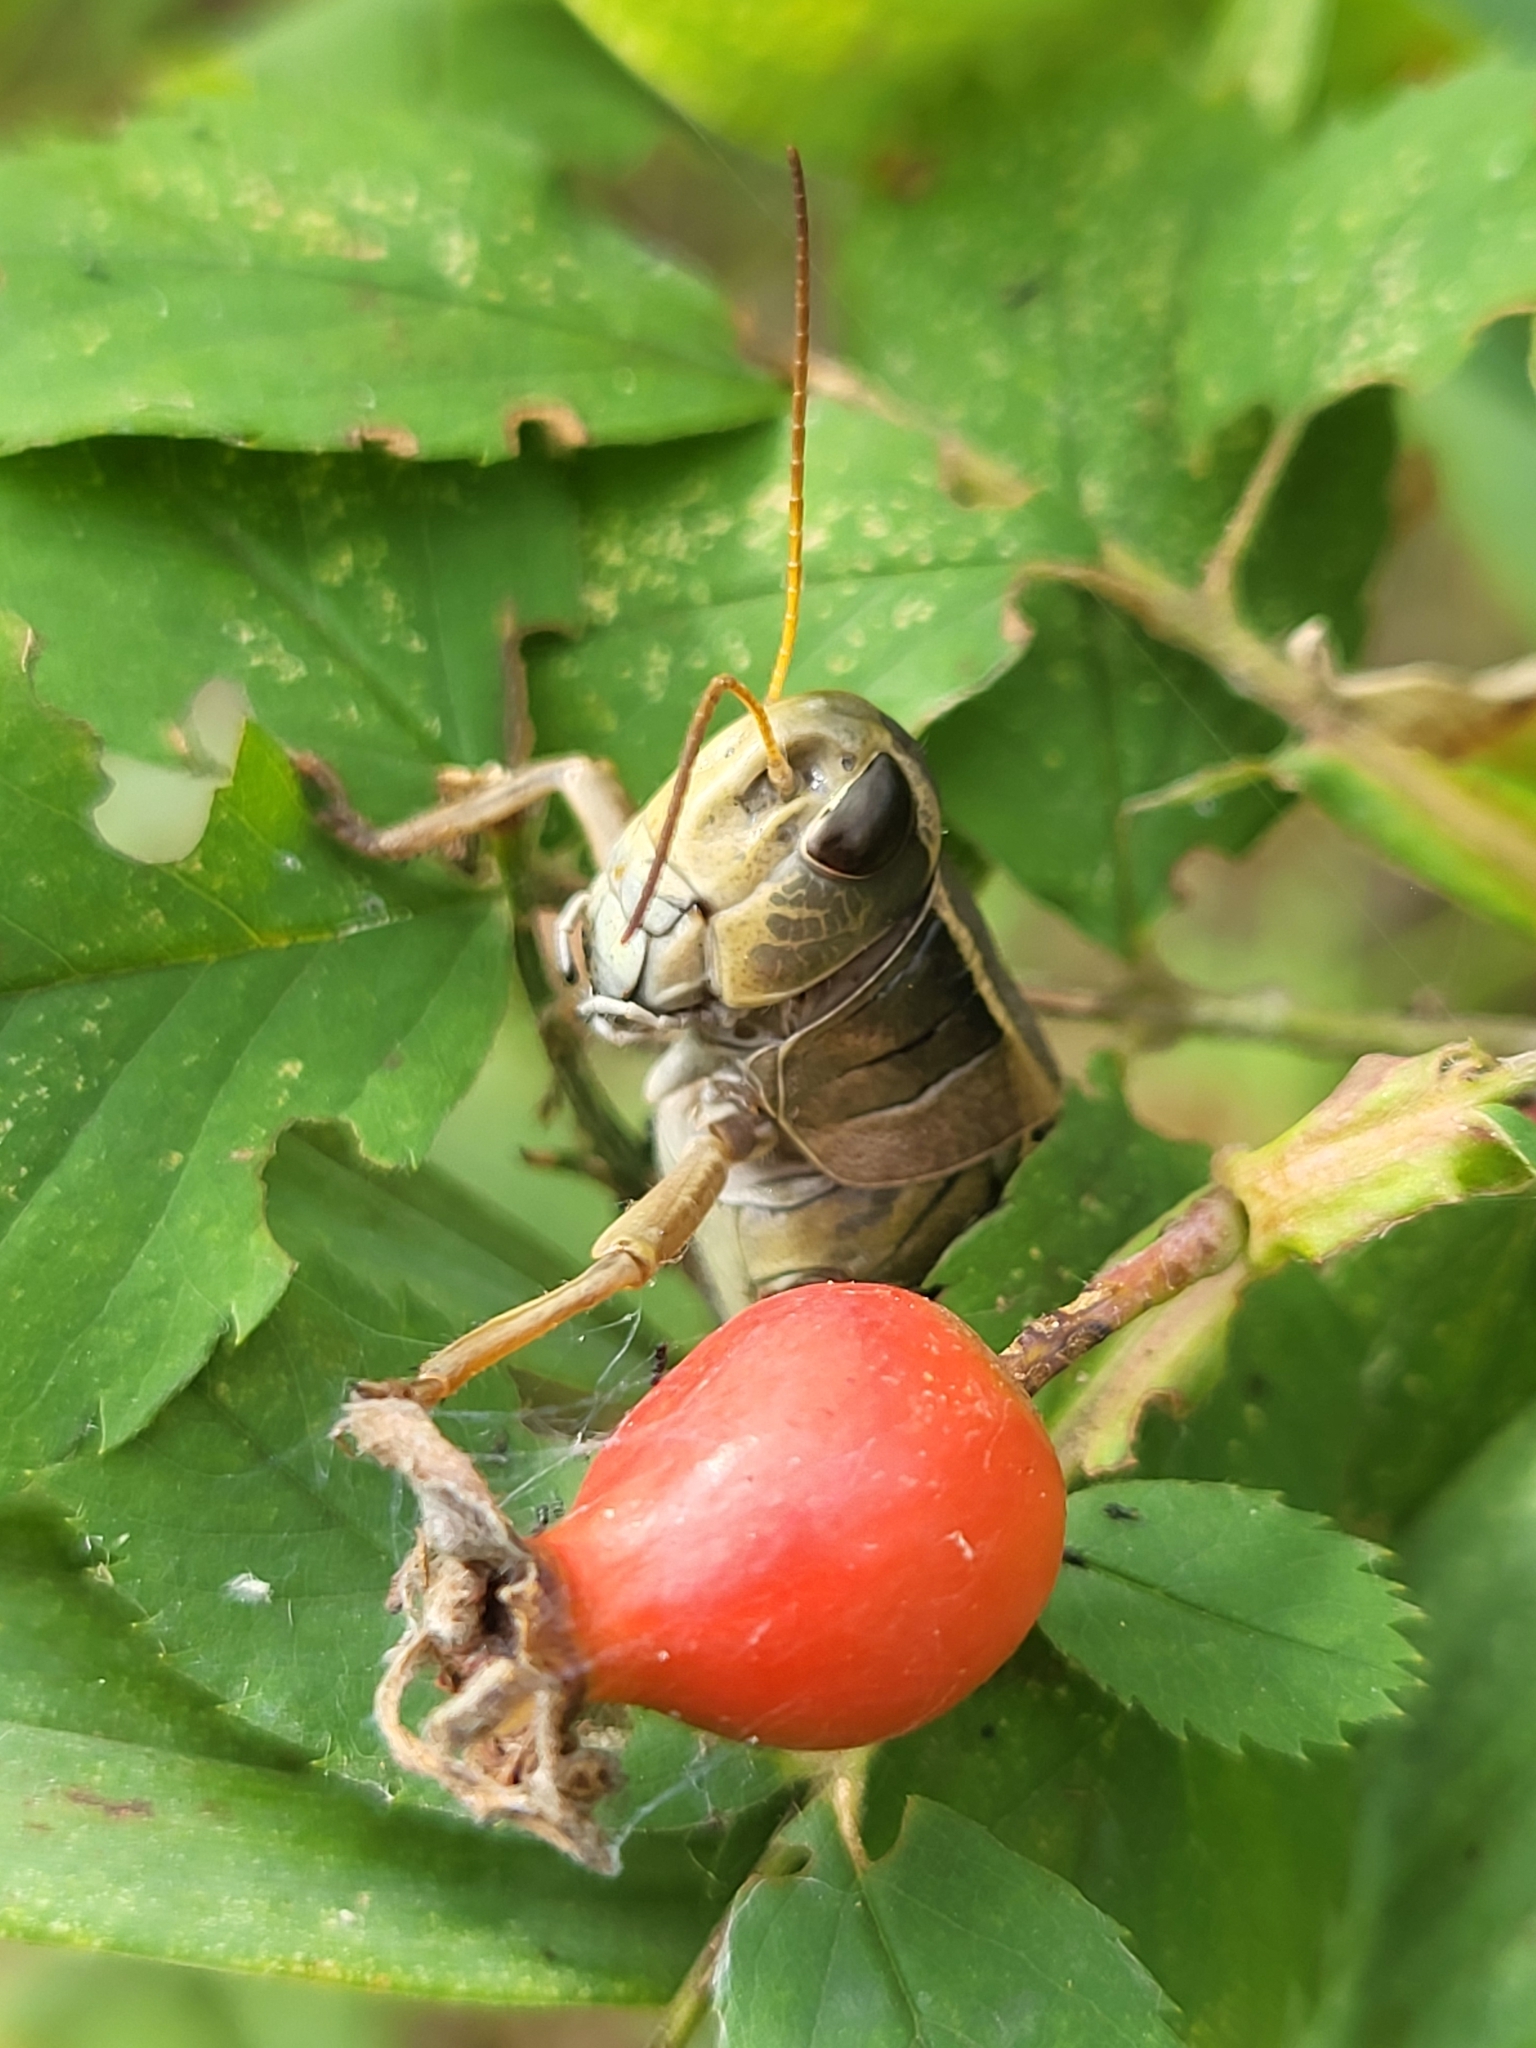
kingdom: Animalia
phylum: Arthropoda
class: Insecta
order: Orthoptera
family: Acrididae
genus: Melanoplus
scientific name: Melanoplus bivittatus
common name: Two-striped grasshopper
